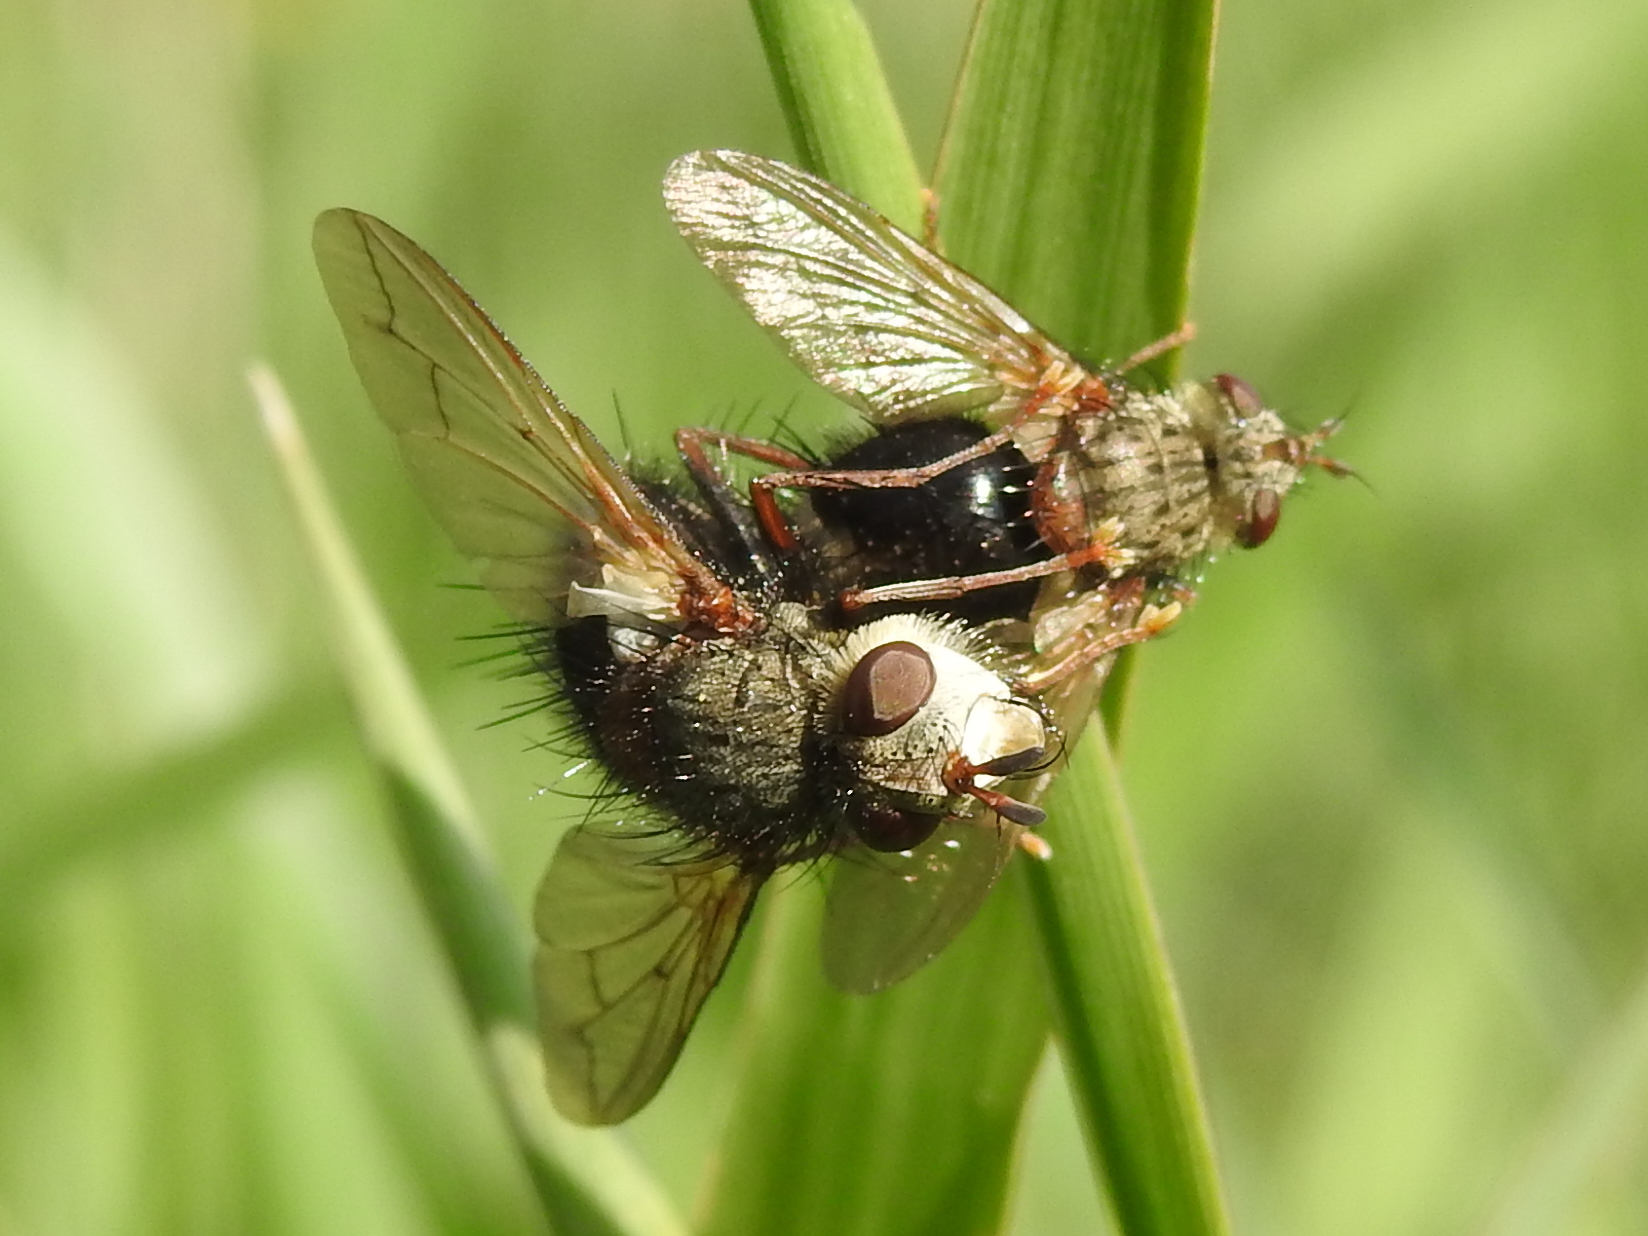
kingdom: Animalia
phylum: Arthropoda
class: Insecta
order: Diptera
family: Tachinidae
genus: Epalpus
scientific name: Epalpus signifer
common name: Early tachinid fly
